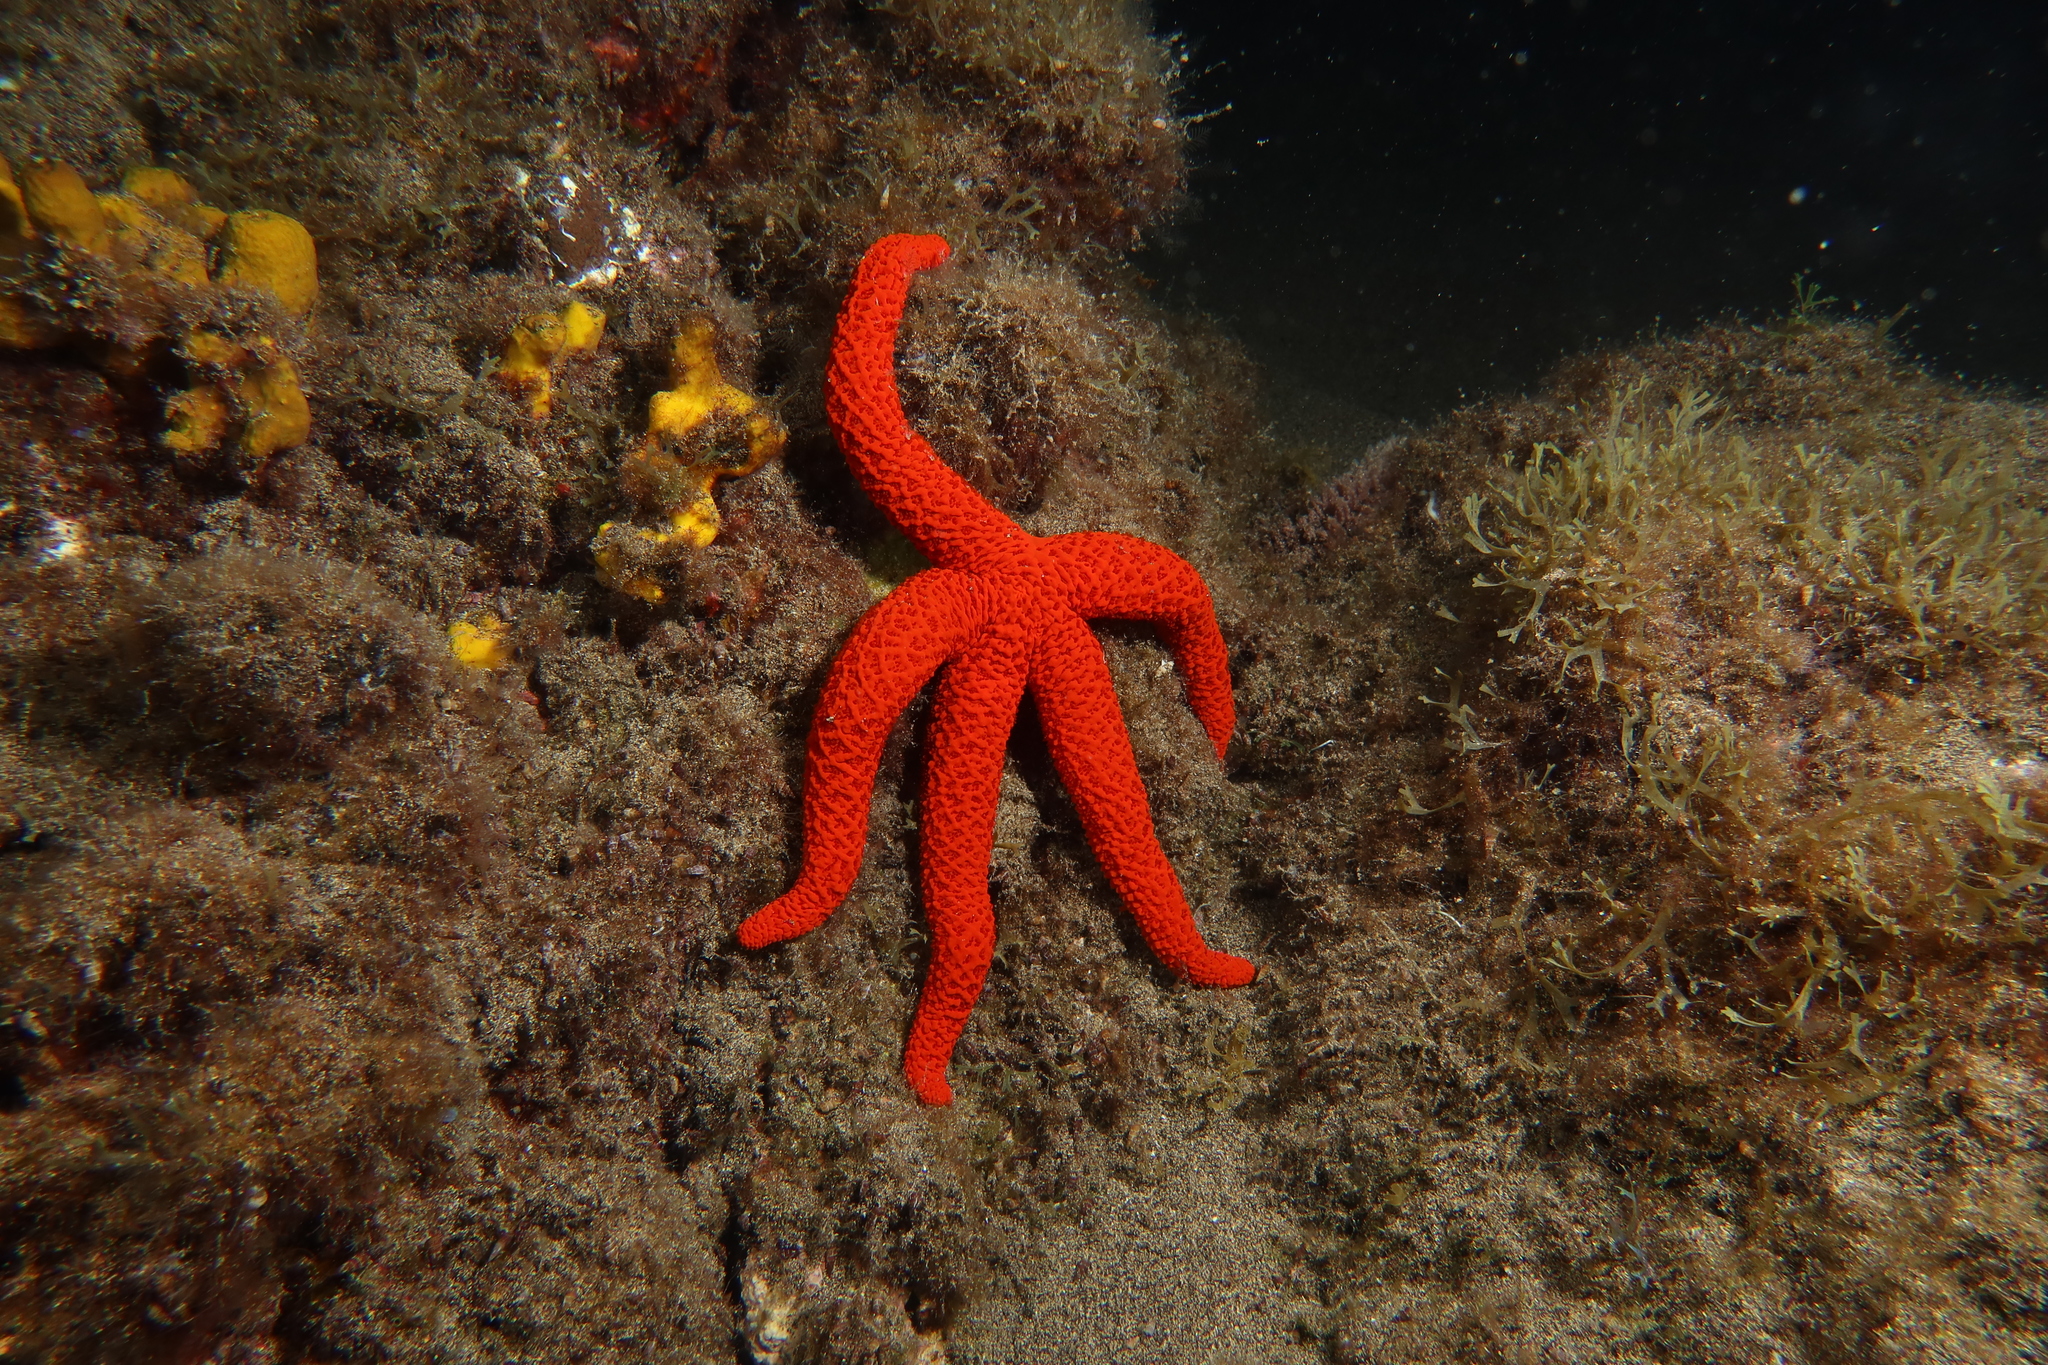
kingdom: Animalia
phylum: Echinodermata
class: Asteroidea
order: Spinulosida
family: Echinasteridae
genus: Echinaster
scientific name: Echinaster sepositus
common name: Red starfish
